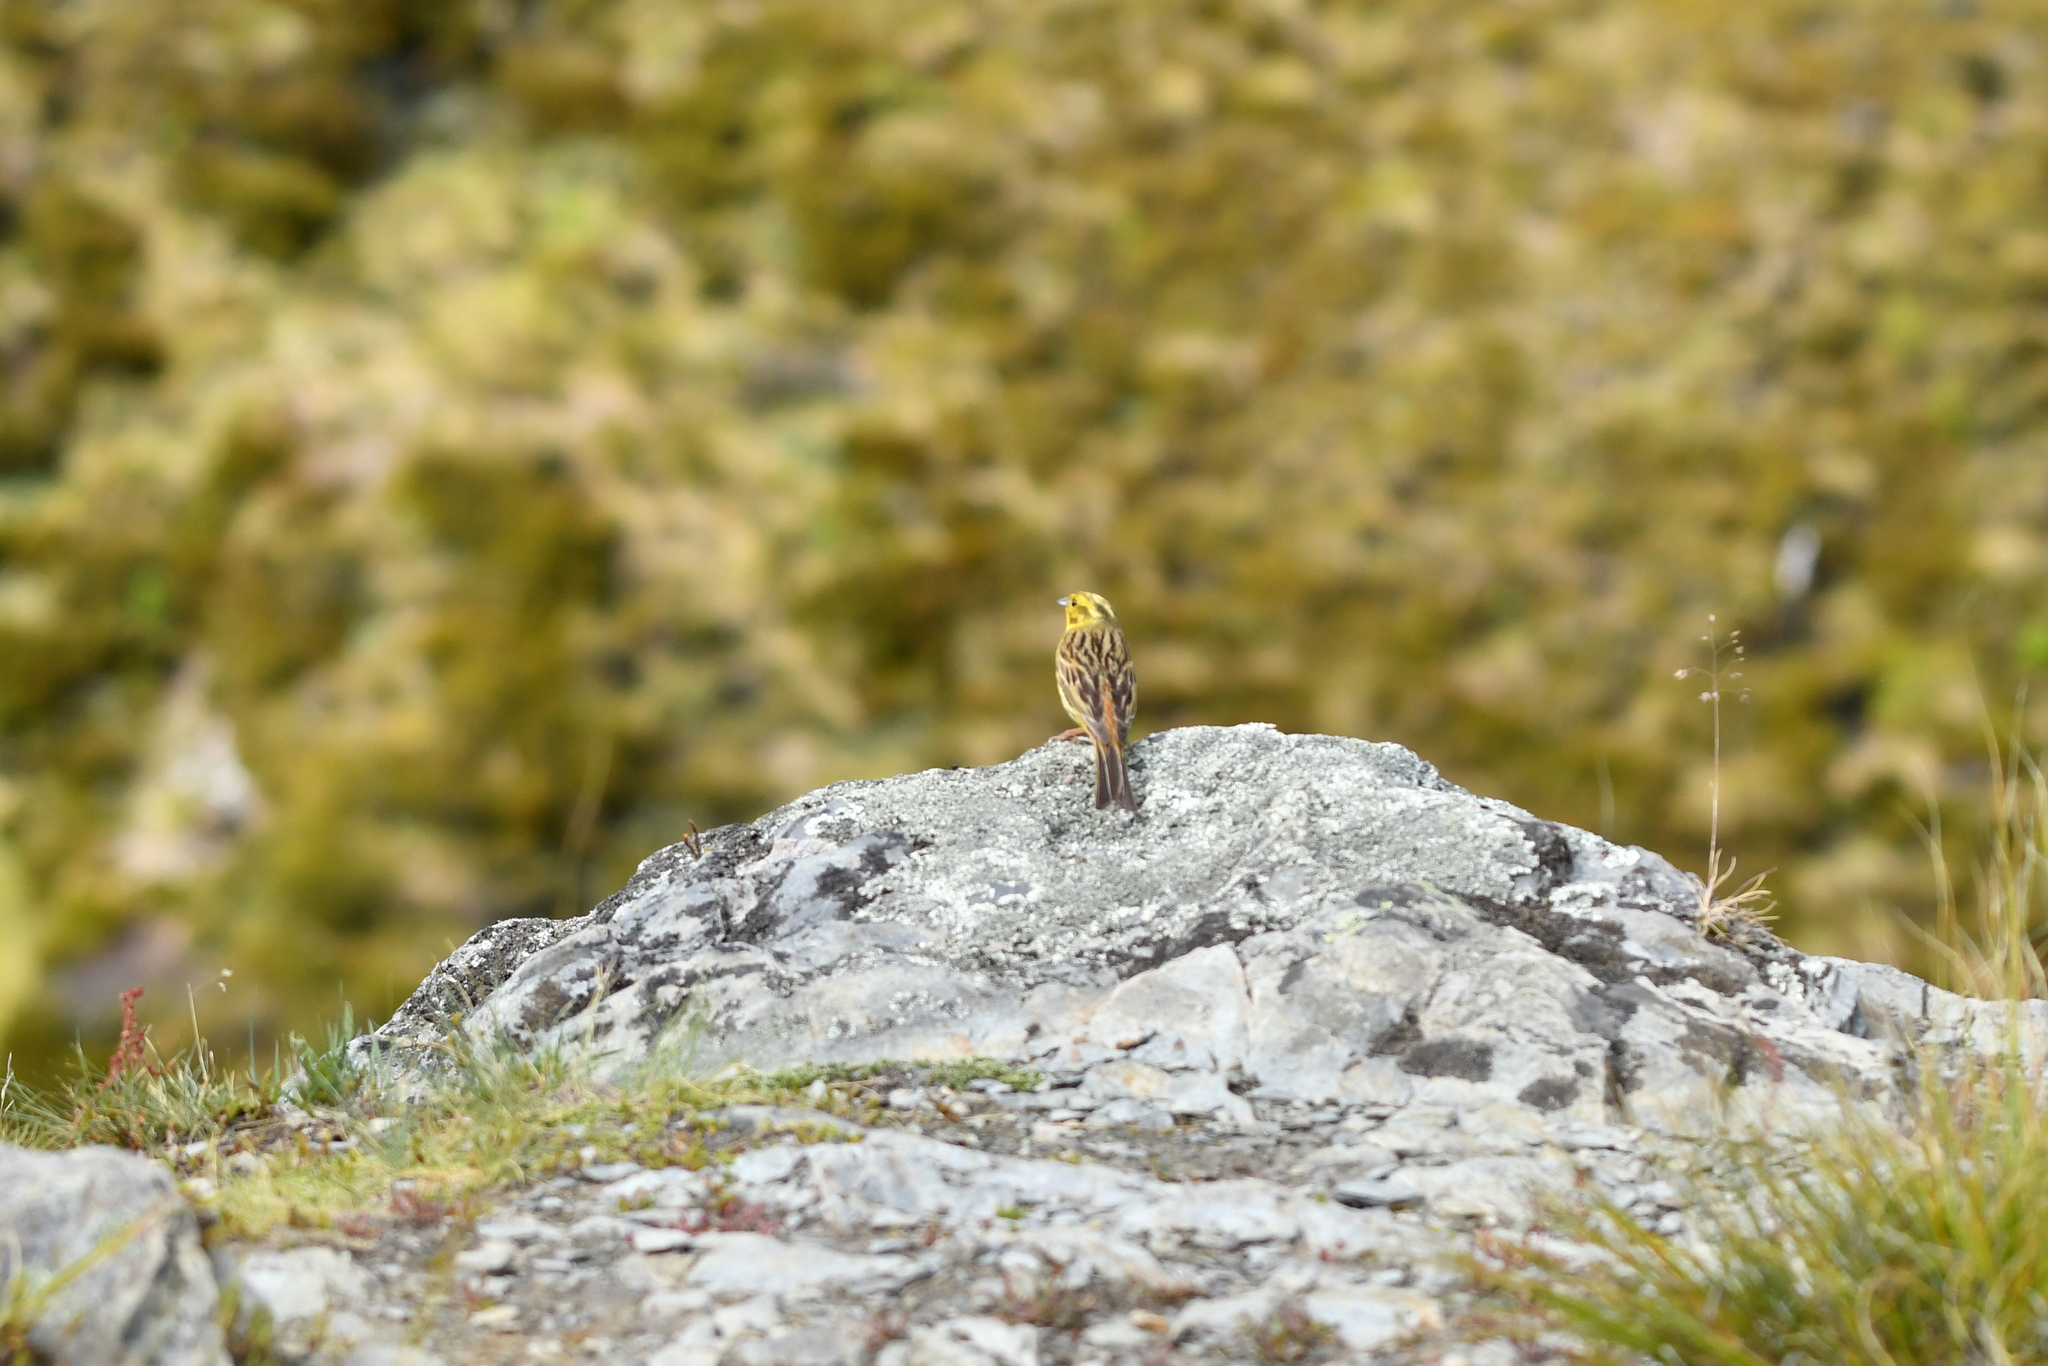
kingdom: Animalia
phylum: Chordata
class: Aves
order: Passeriformes
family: Emberizidae
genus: Emberiza
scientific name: Emberiza citrinella
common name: Yellowhammer
